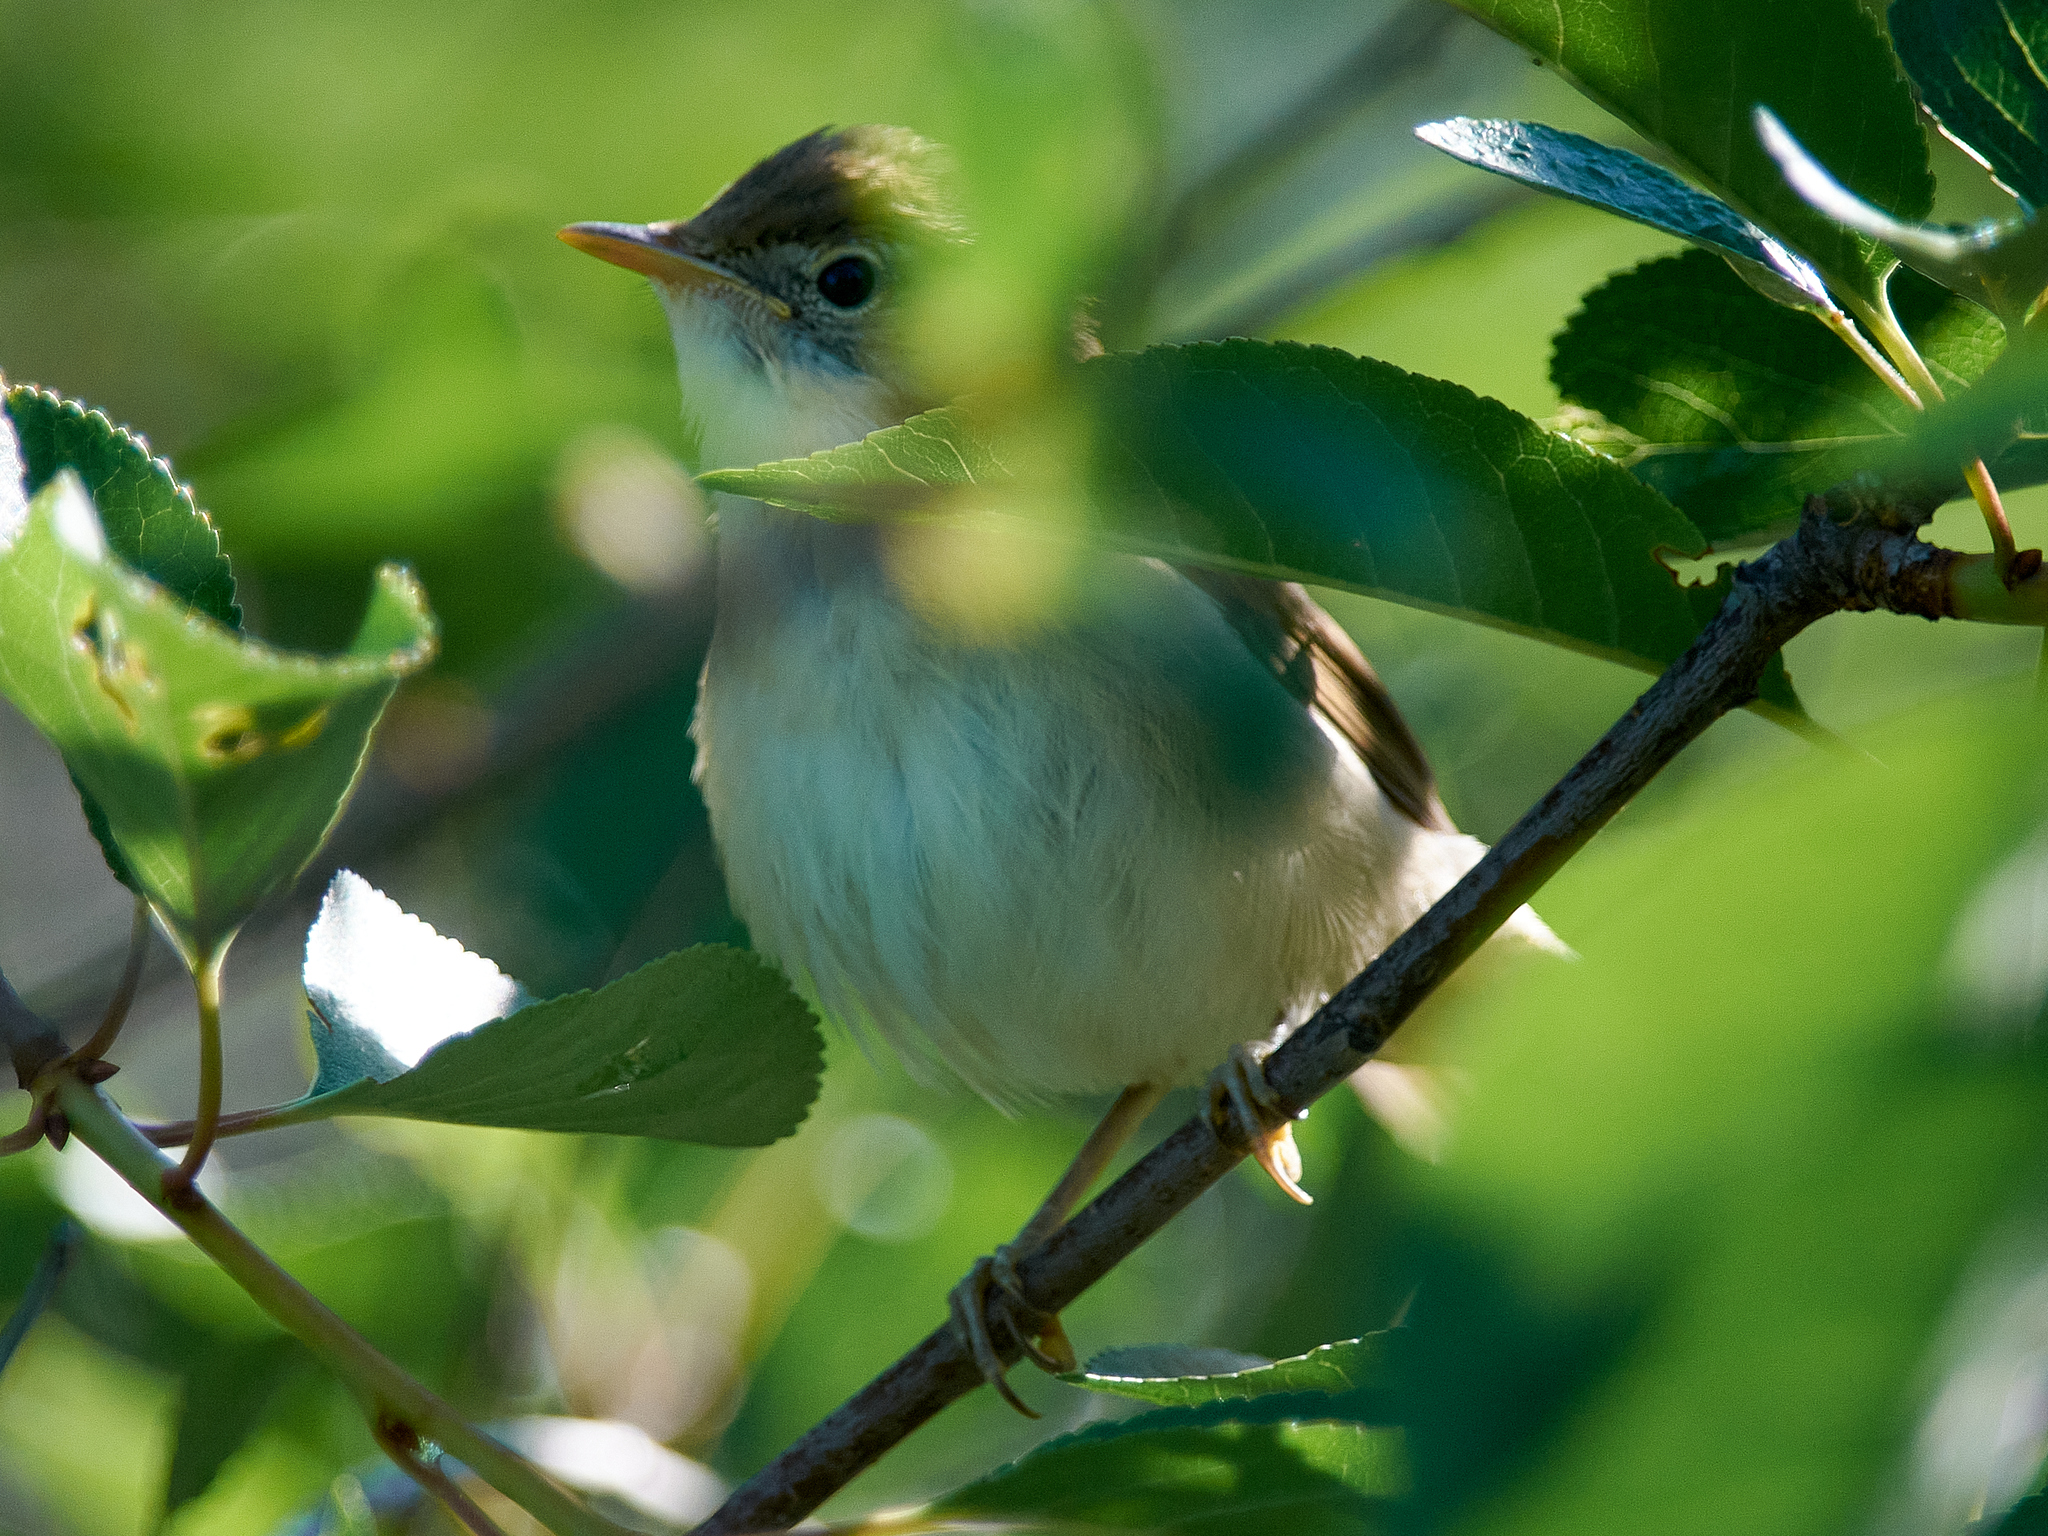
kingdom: Animalia
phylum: Chordata
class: Aves
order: Passeriformes
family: Acrocephalidae
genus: Acrocephalus
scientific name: Acrocephalus dumetorum
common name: Blyth's reed warbler
